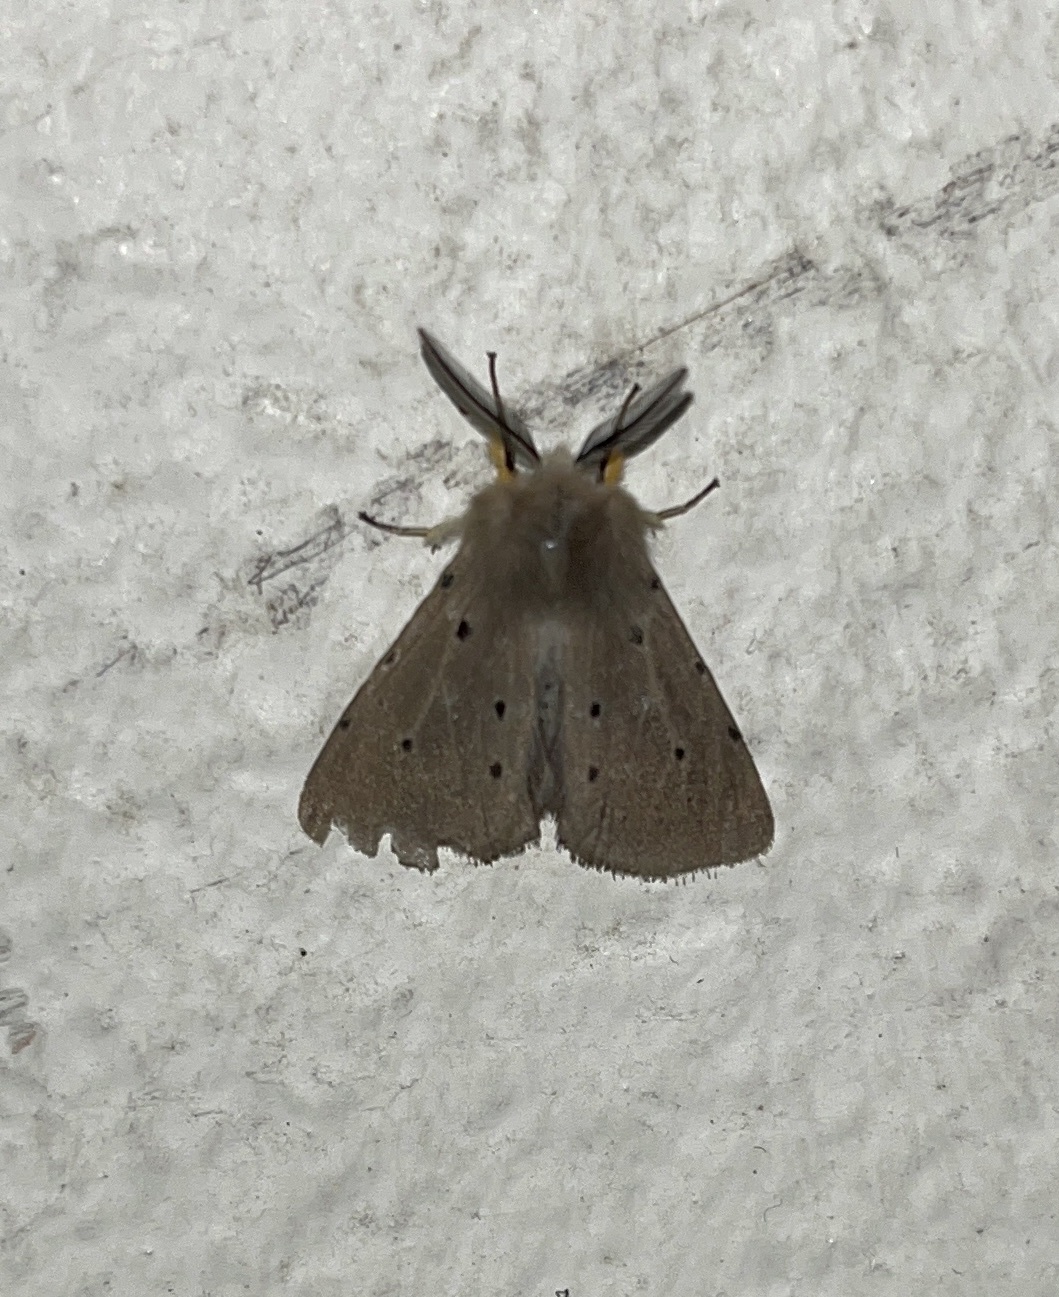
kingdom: Animalia
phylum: Arthropoda
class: Insecta
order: Lepidoptera
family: Erebidae
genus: Diaphora
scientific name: Diaphora mendica
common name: Muslin moth
